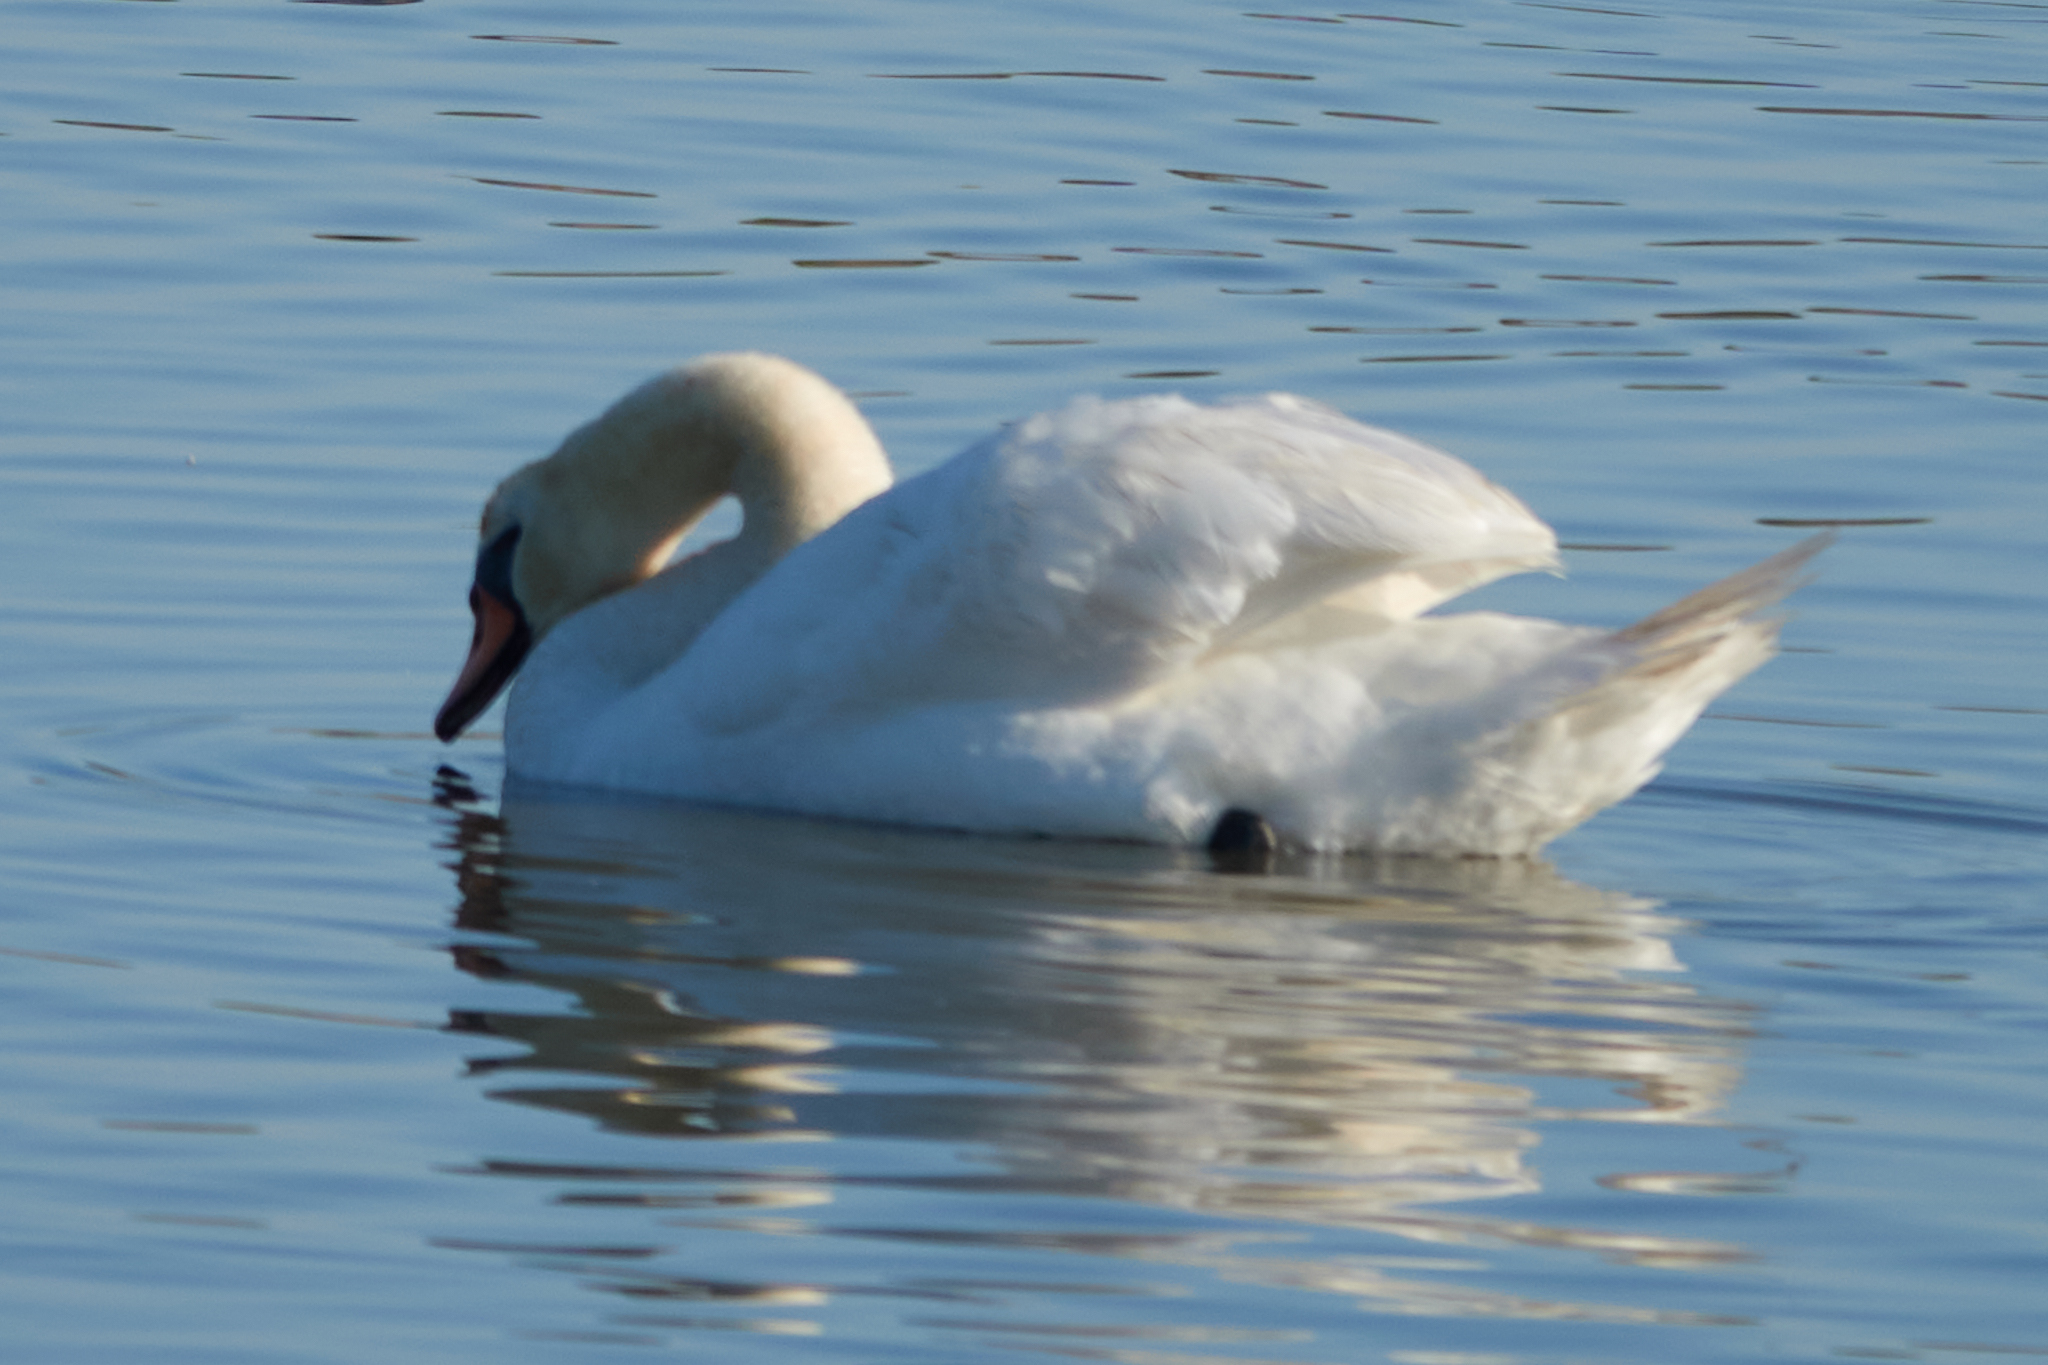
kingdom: Animalia
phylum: Chordata
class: Aves
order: Anseriformes
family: Anatidae
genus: Cygnus
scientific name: Cygnus olor
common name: Mute swan
